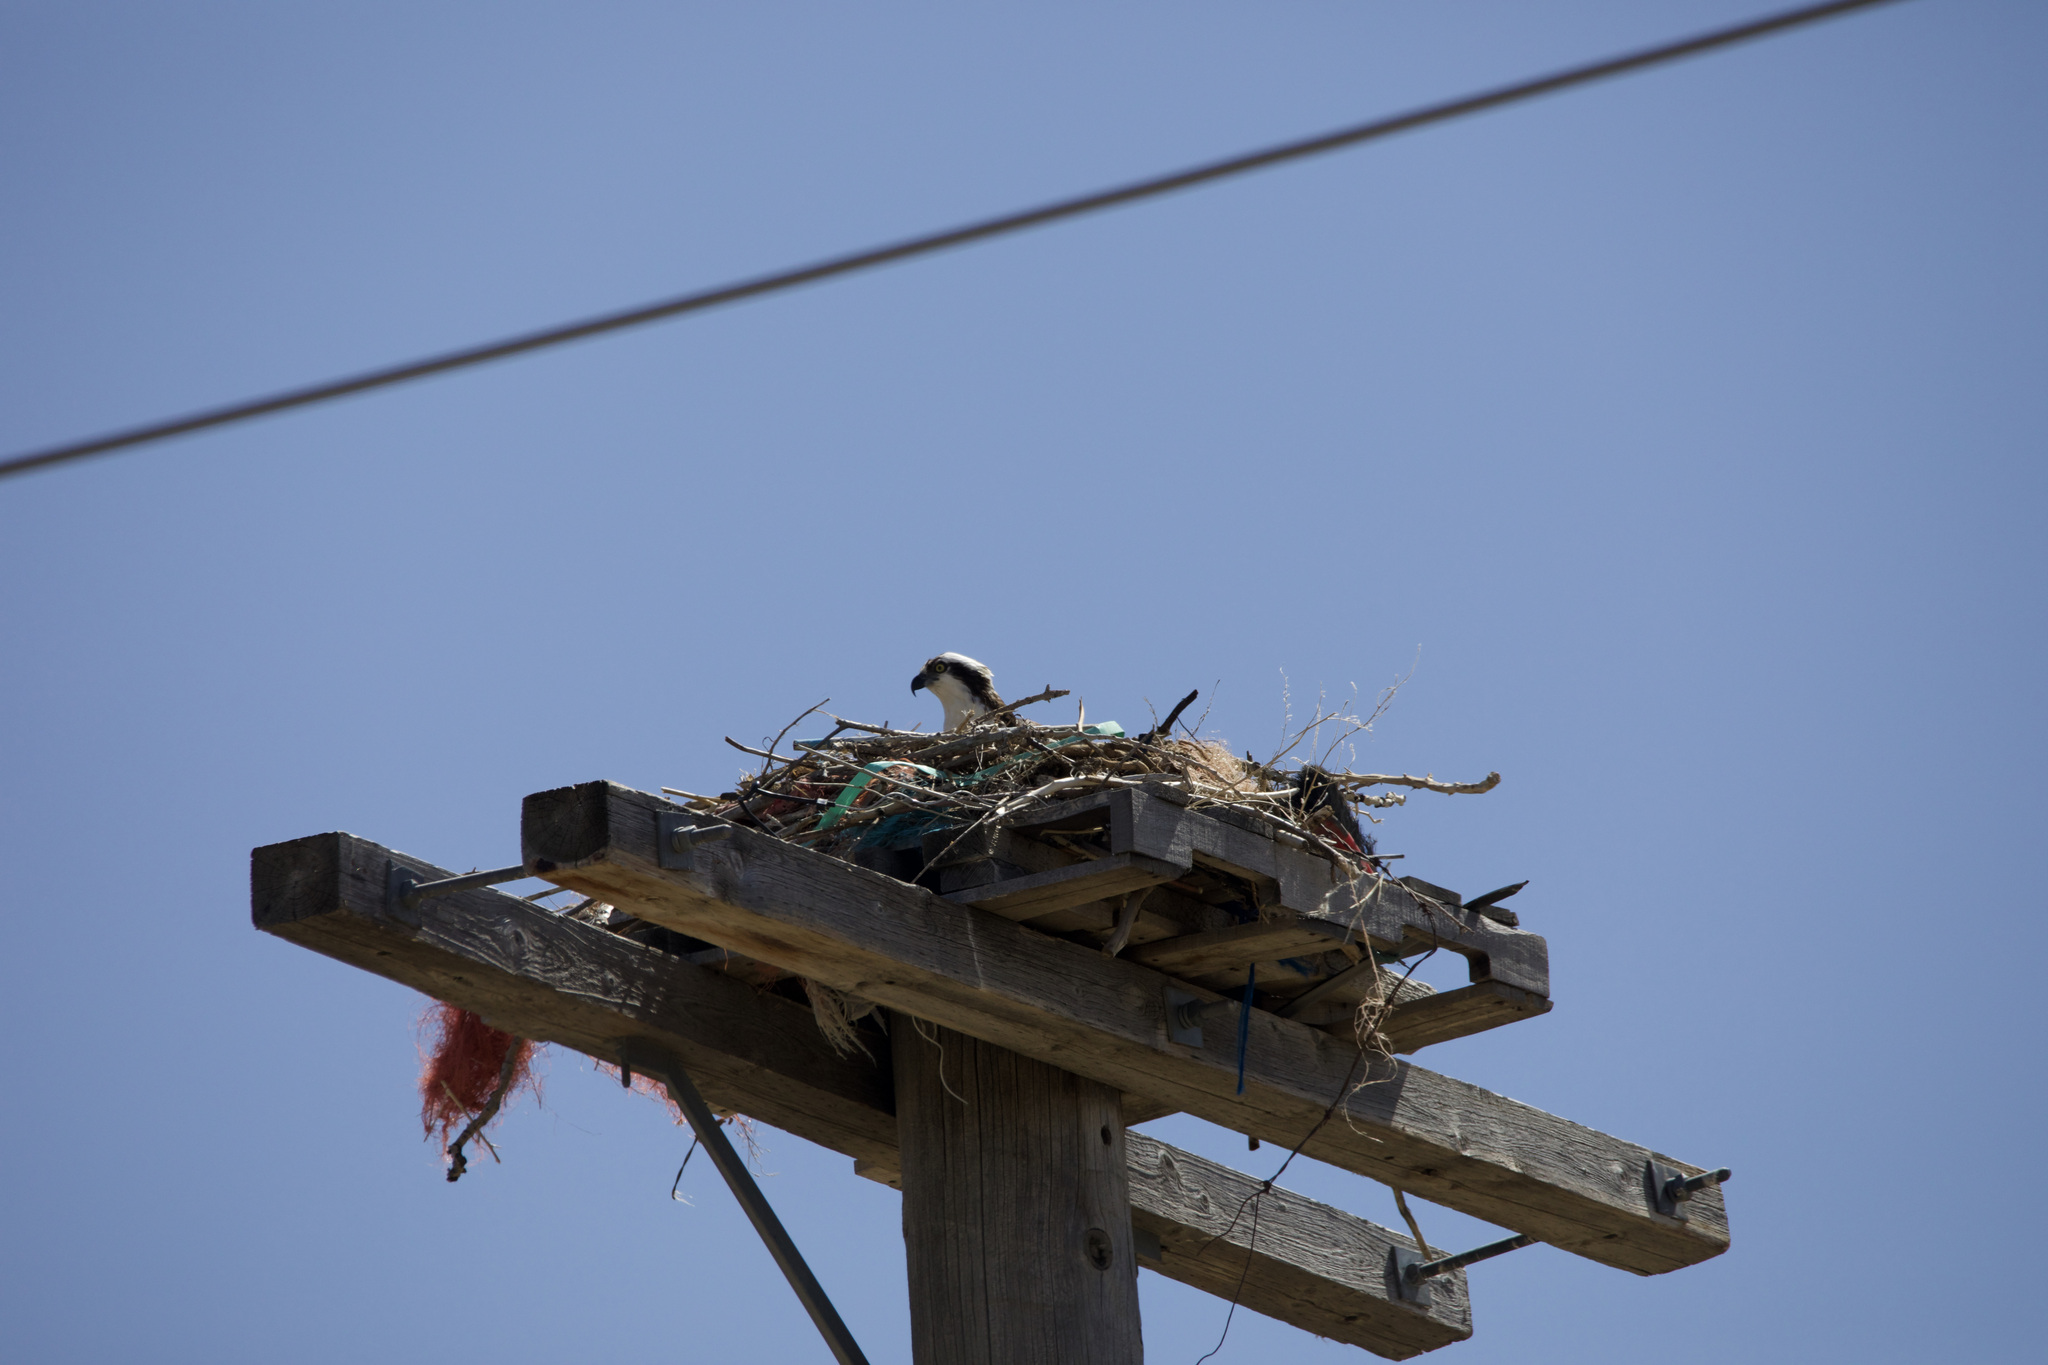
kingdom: Animalia
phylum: Chordata
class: Aves
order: Accipitriformes
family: Pandionidae
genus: Pandion
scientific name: Pandion haliaetus
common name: Osprey
